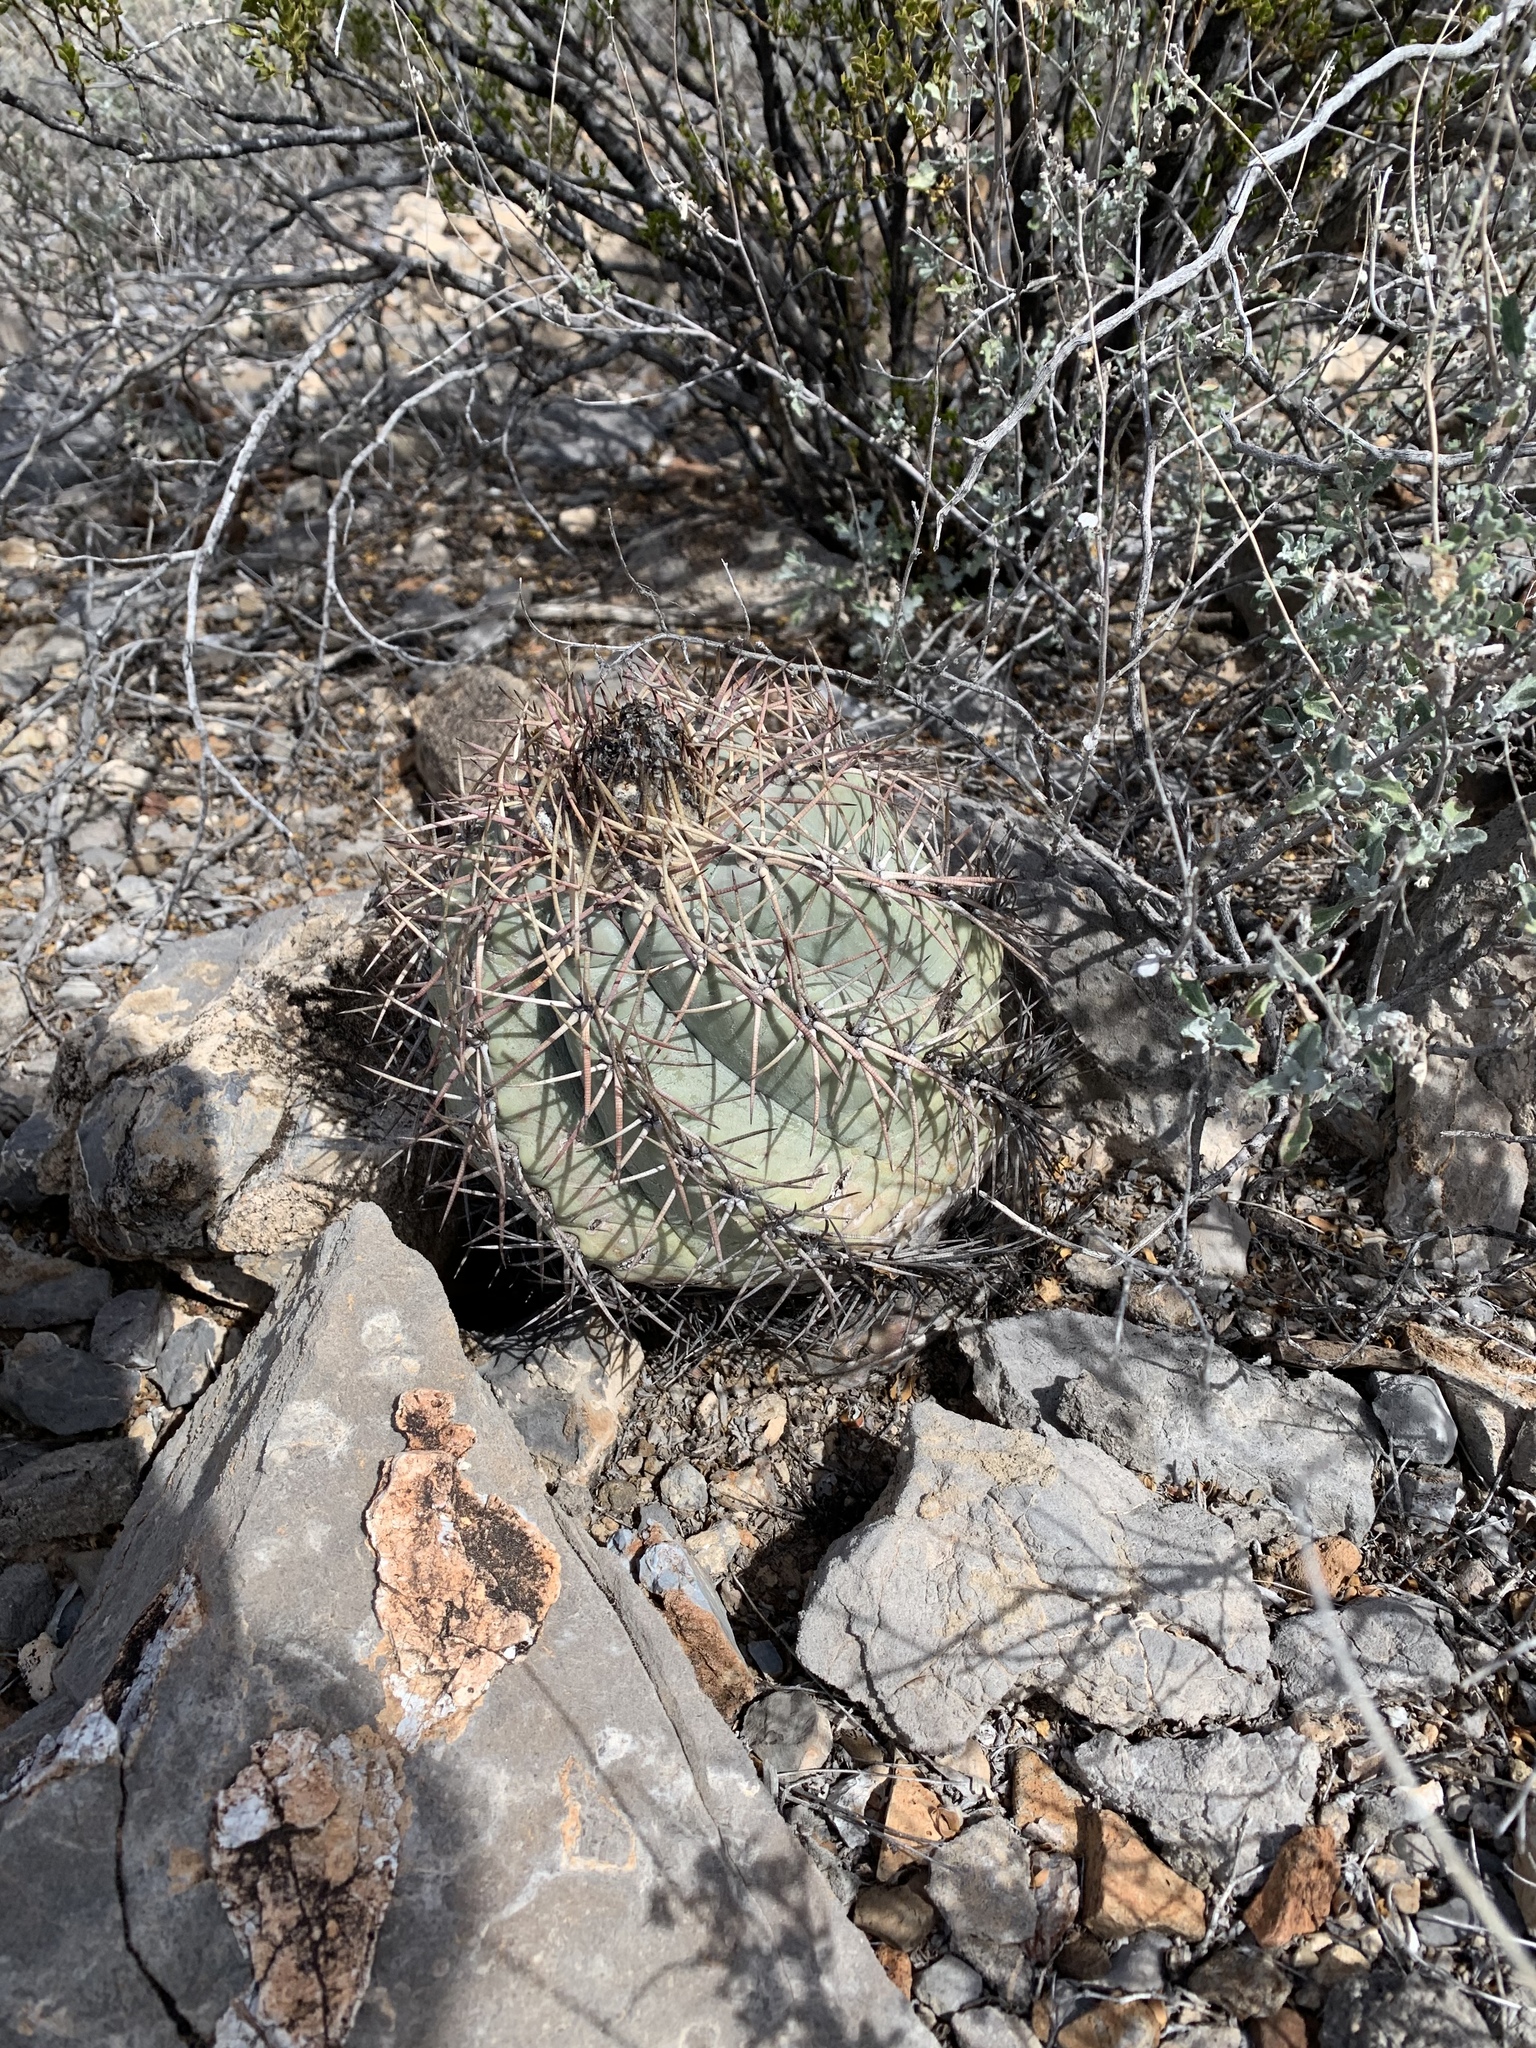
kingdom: Plantae
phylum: Tracheophyta
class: Magnoliopsida
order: Caryophyllales
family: Cactaceae
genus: Echinocactus
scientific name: Echinocactus horizonthalonius
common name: Devilshead
